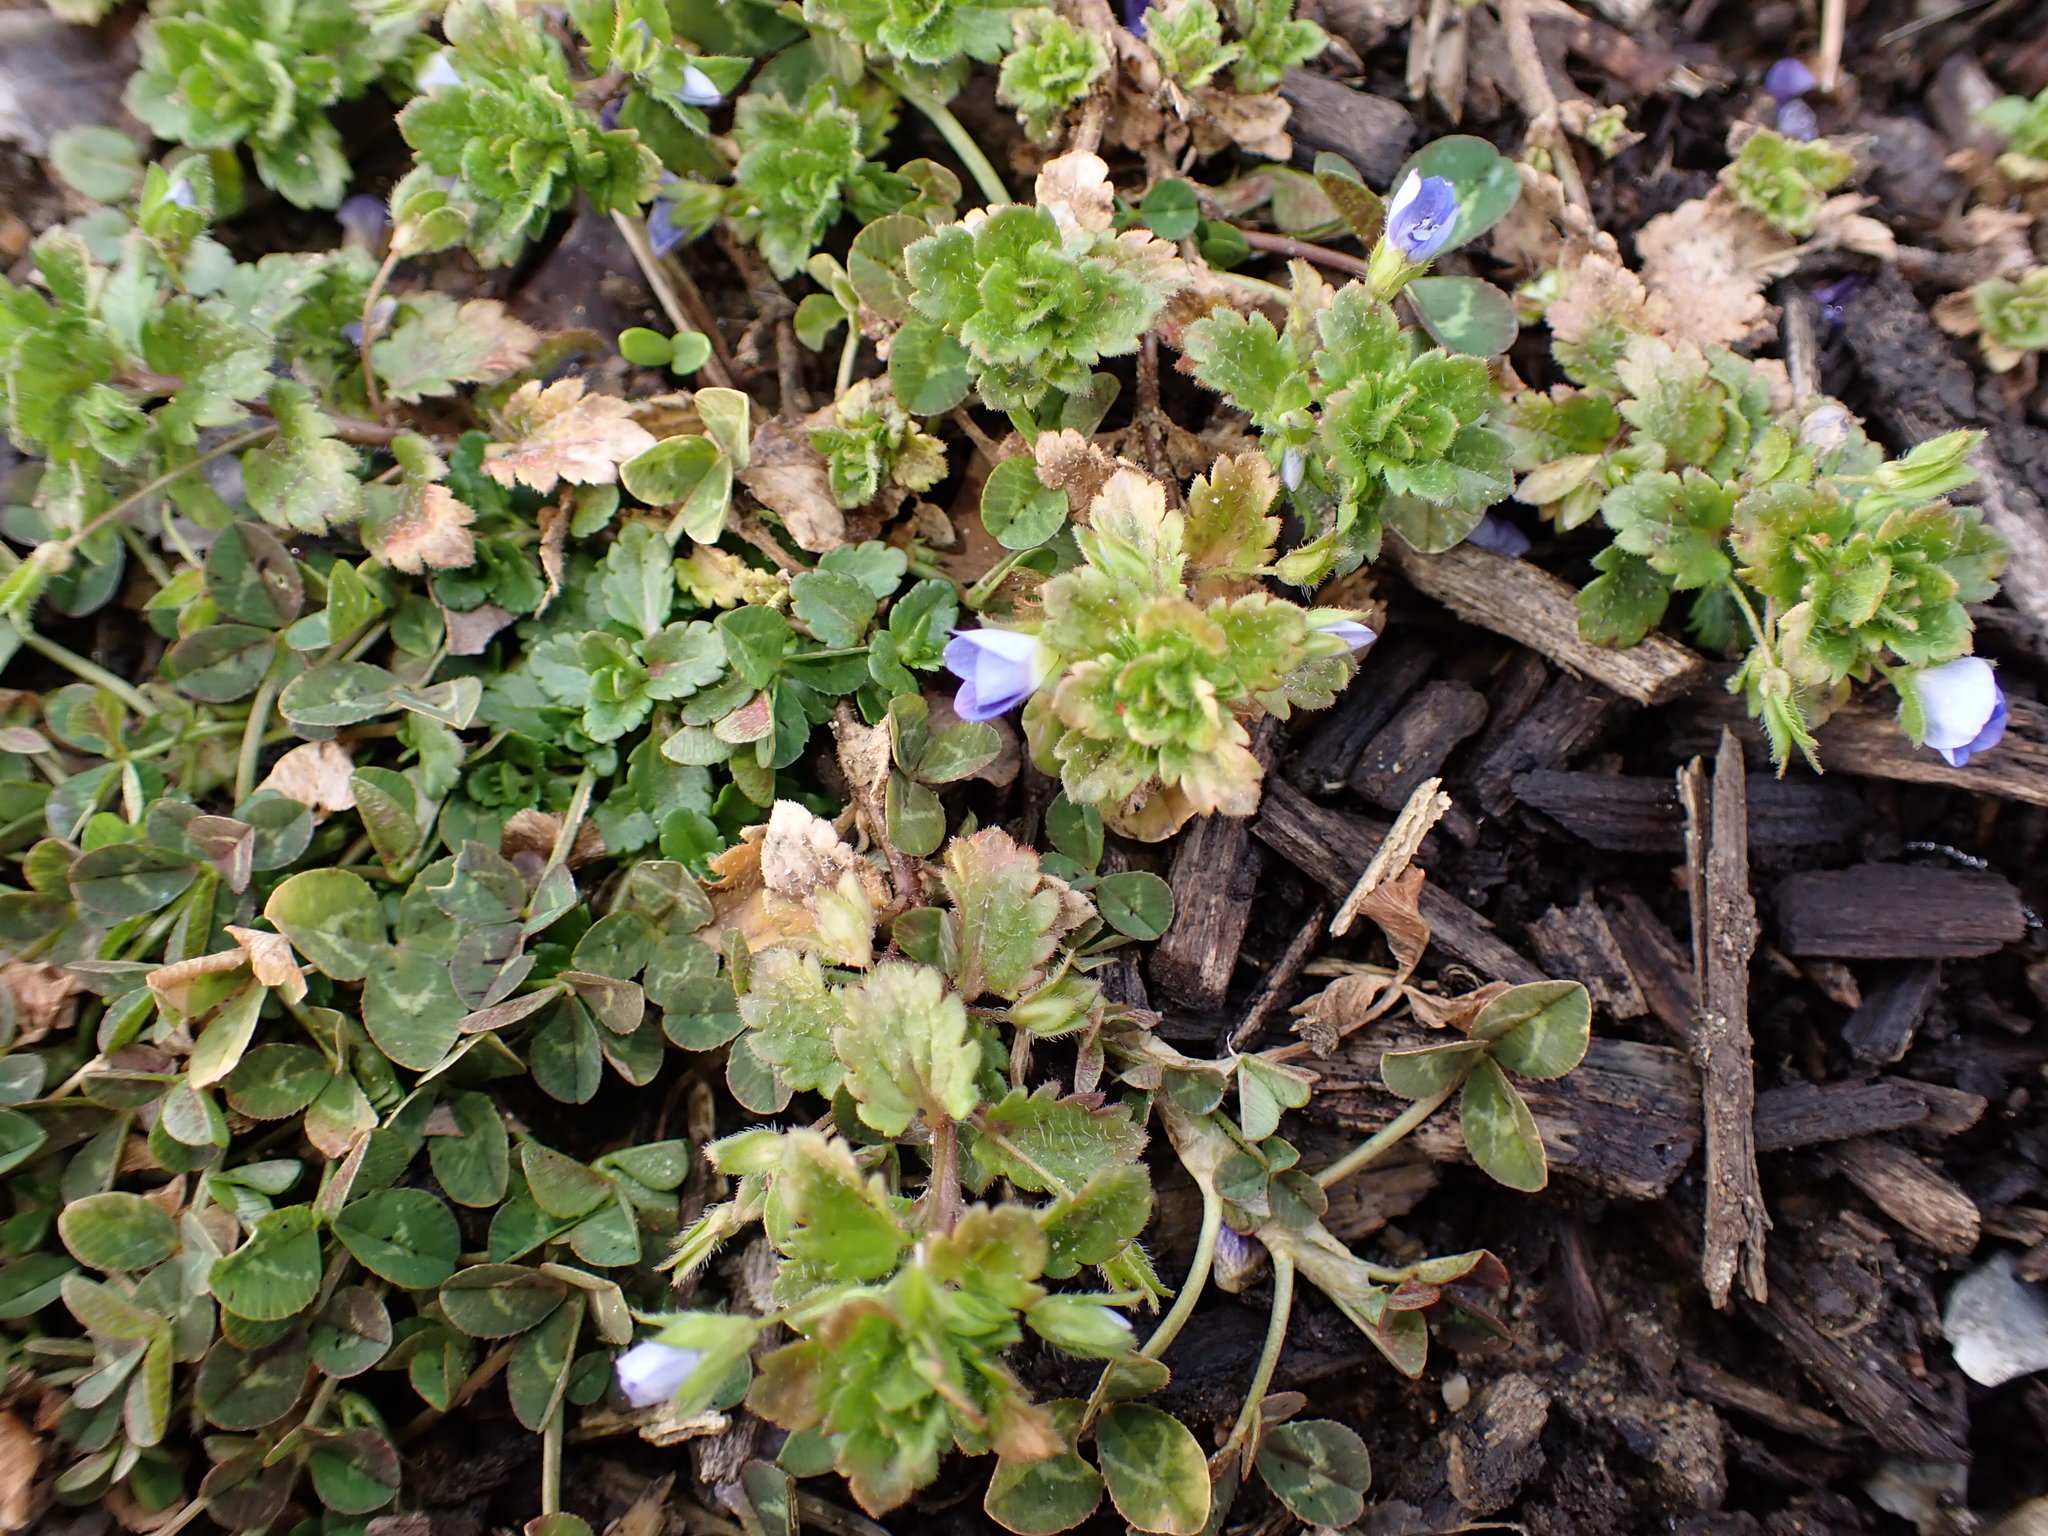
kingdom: Plantae
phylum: Tracheophyta
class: Magnoliopsida
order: Lamiales
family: Plantaginaceae
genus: Veronica
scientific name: Veronica persica
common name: Common field-speedwell
